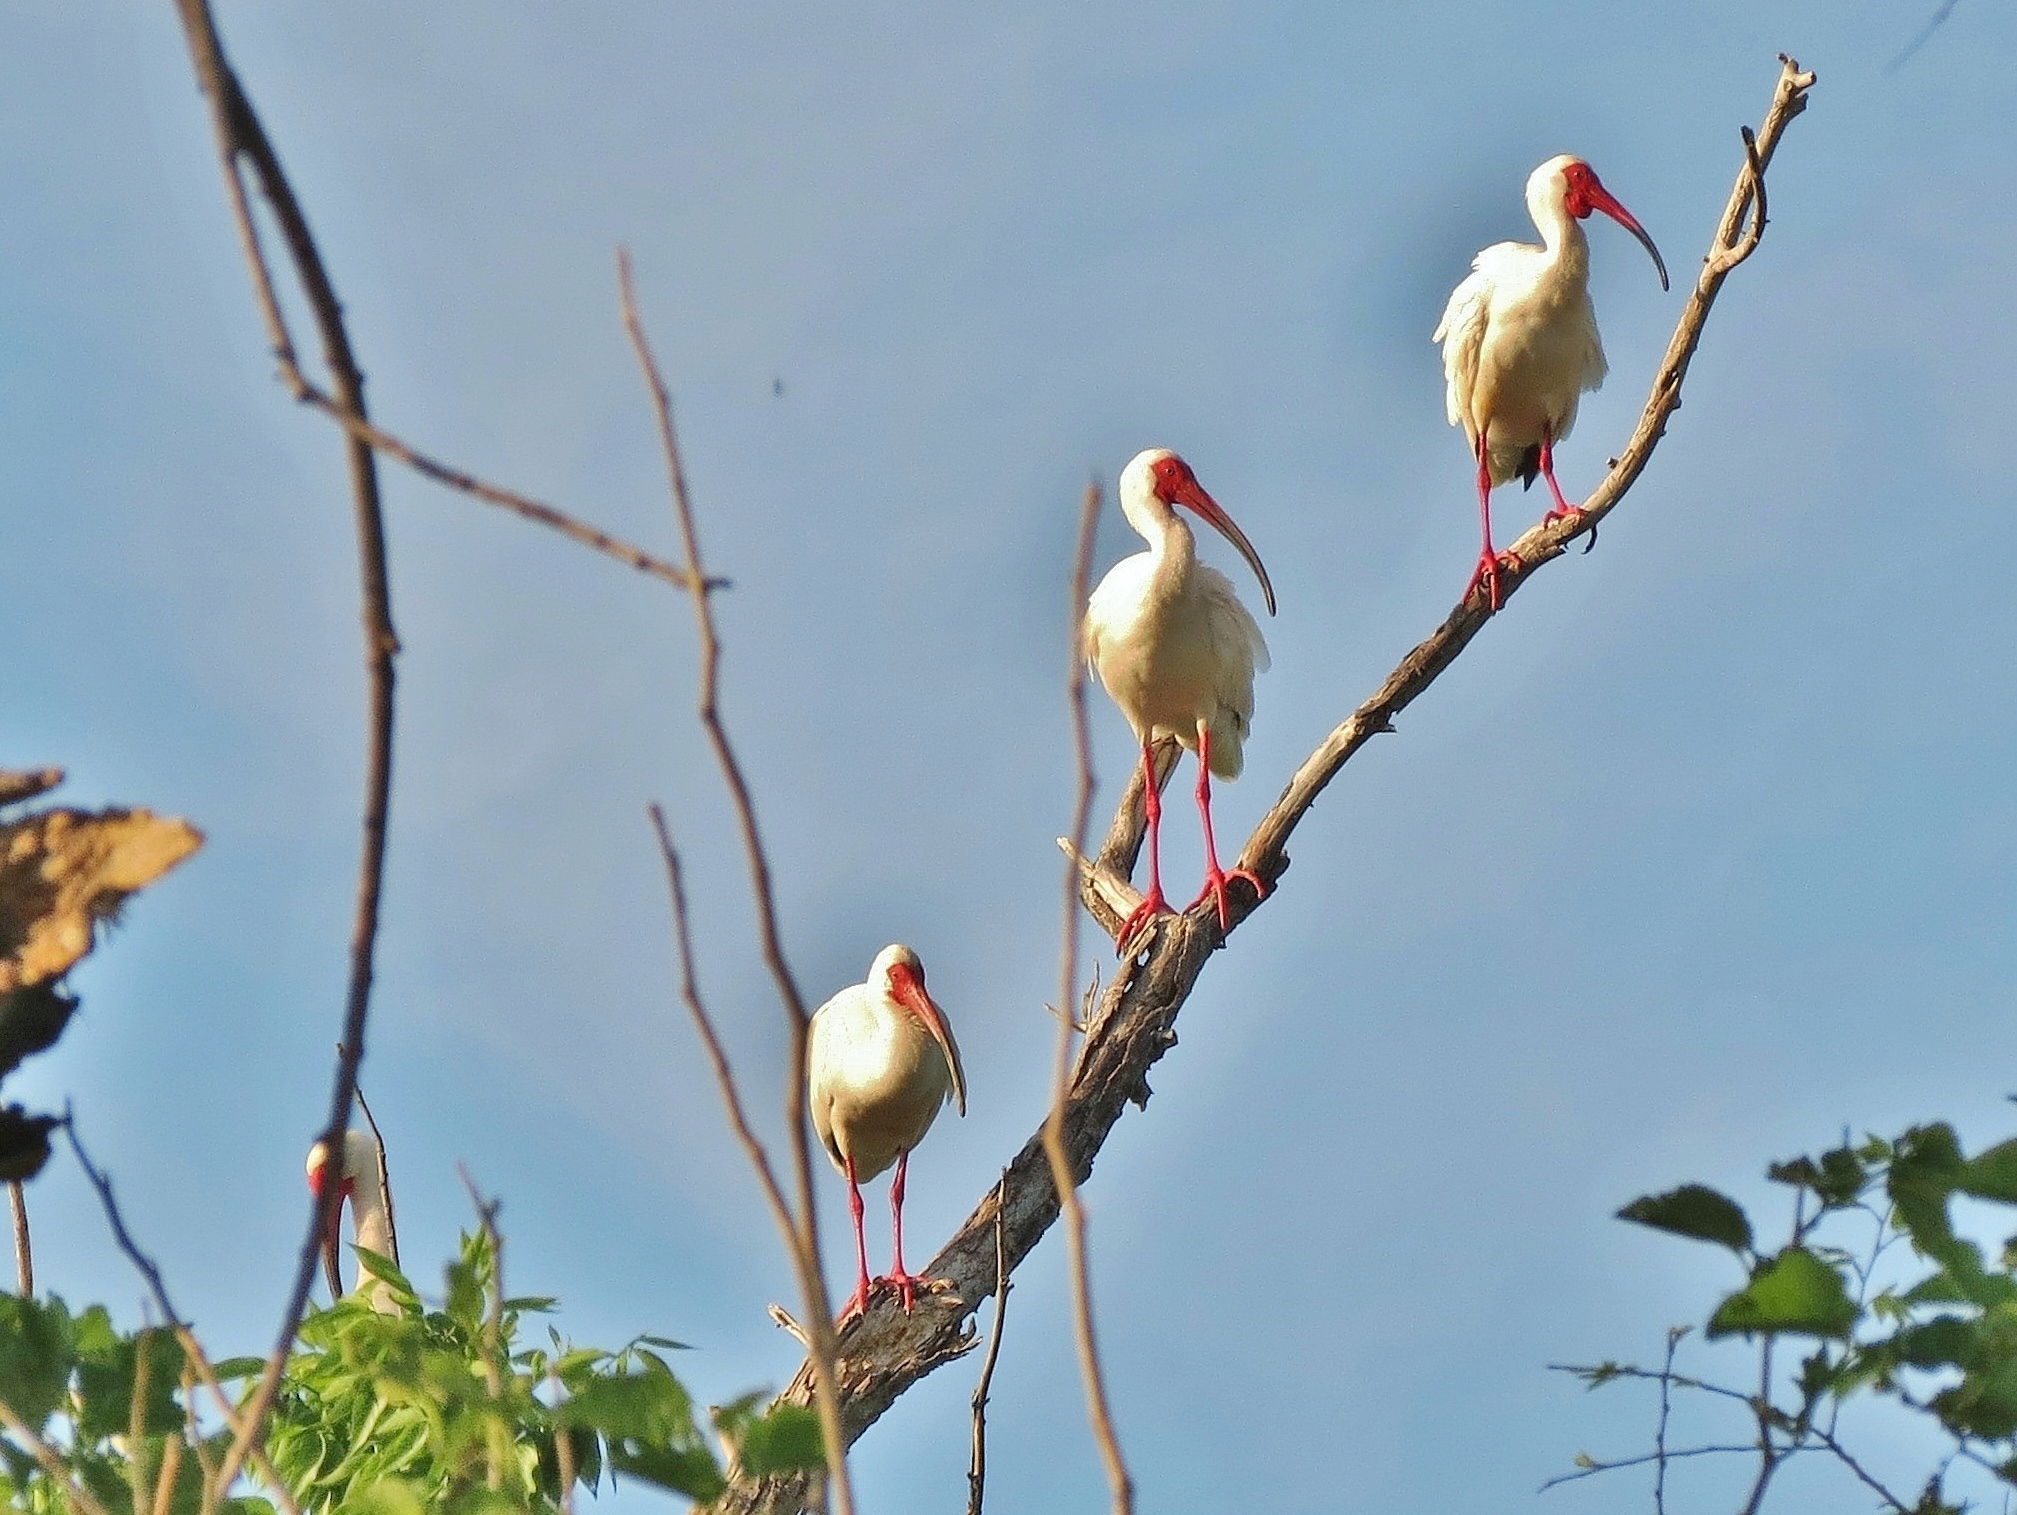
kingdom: Animalia
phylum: Chordata
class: Aves
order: Pelecaniformes
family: Threskiornithidae
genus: Eudocimus
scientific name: Eudocimus albus
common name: White ibis
